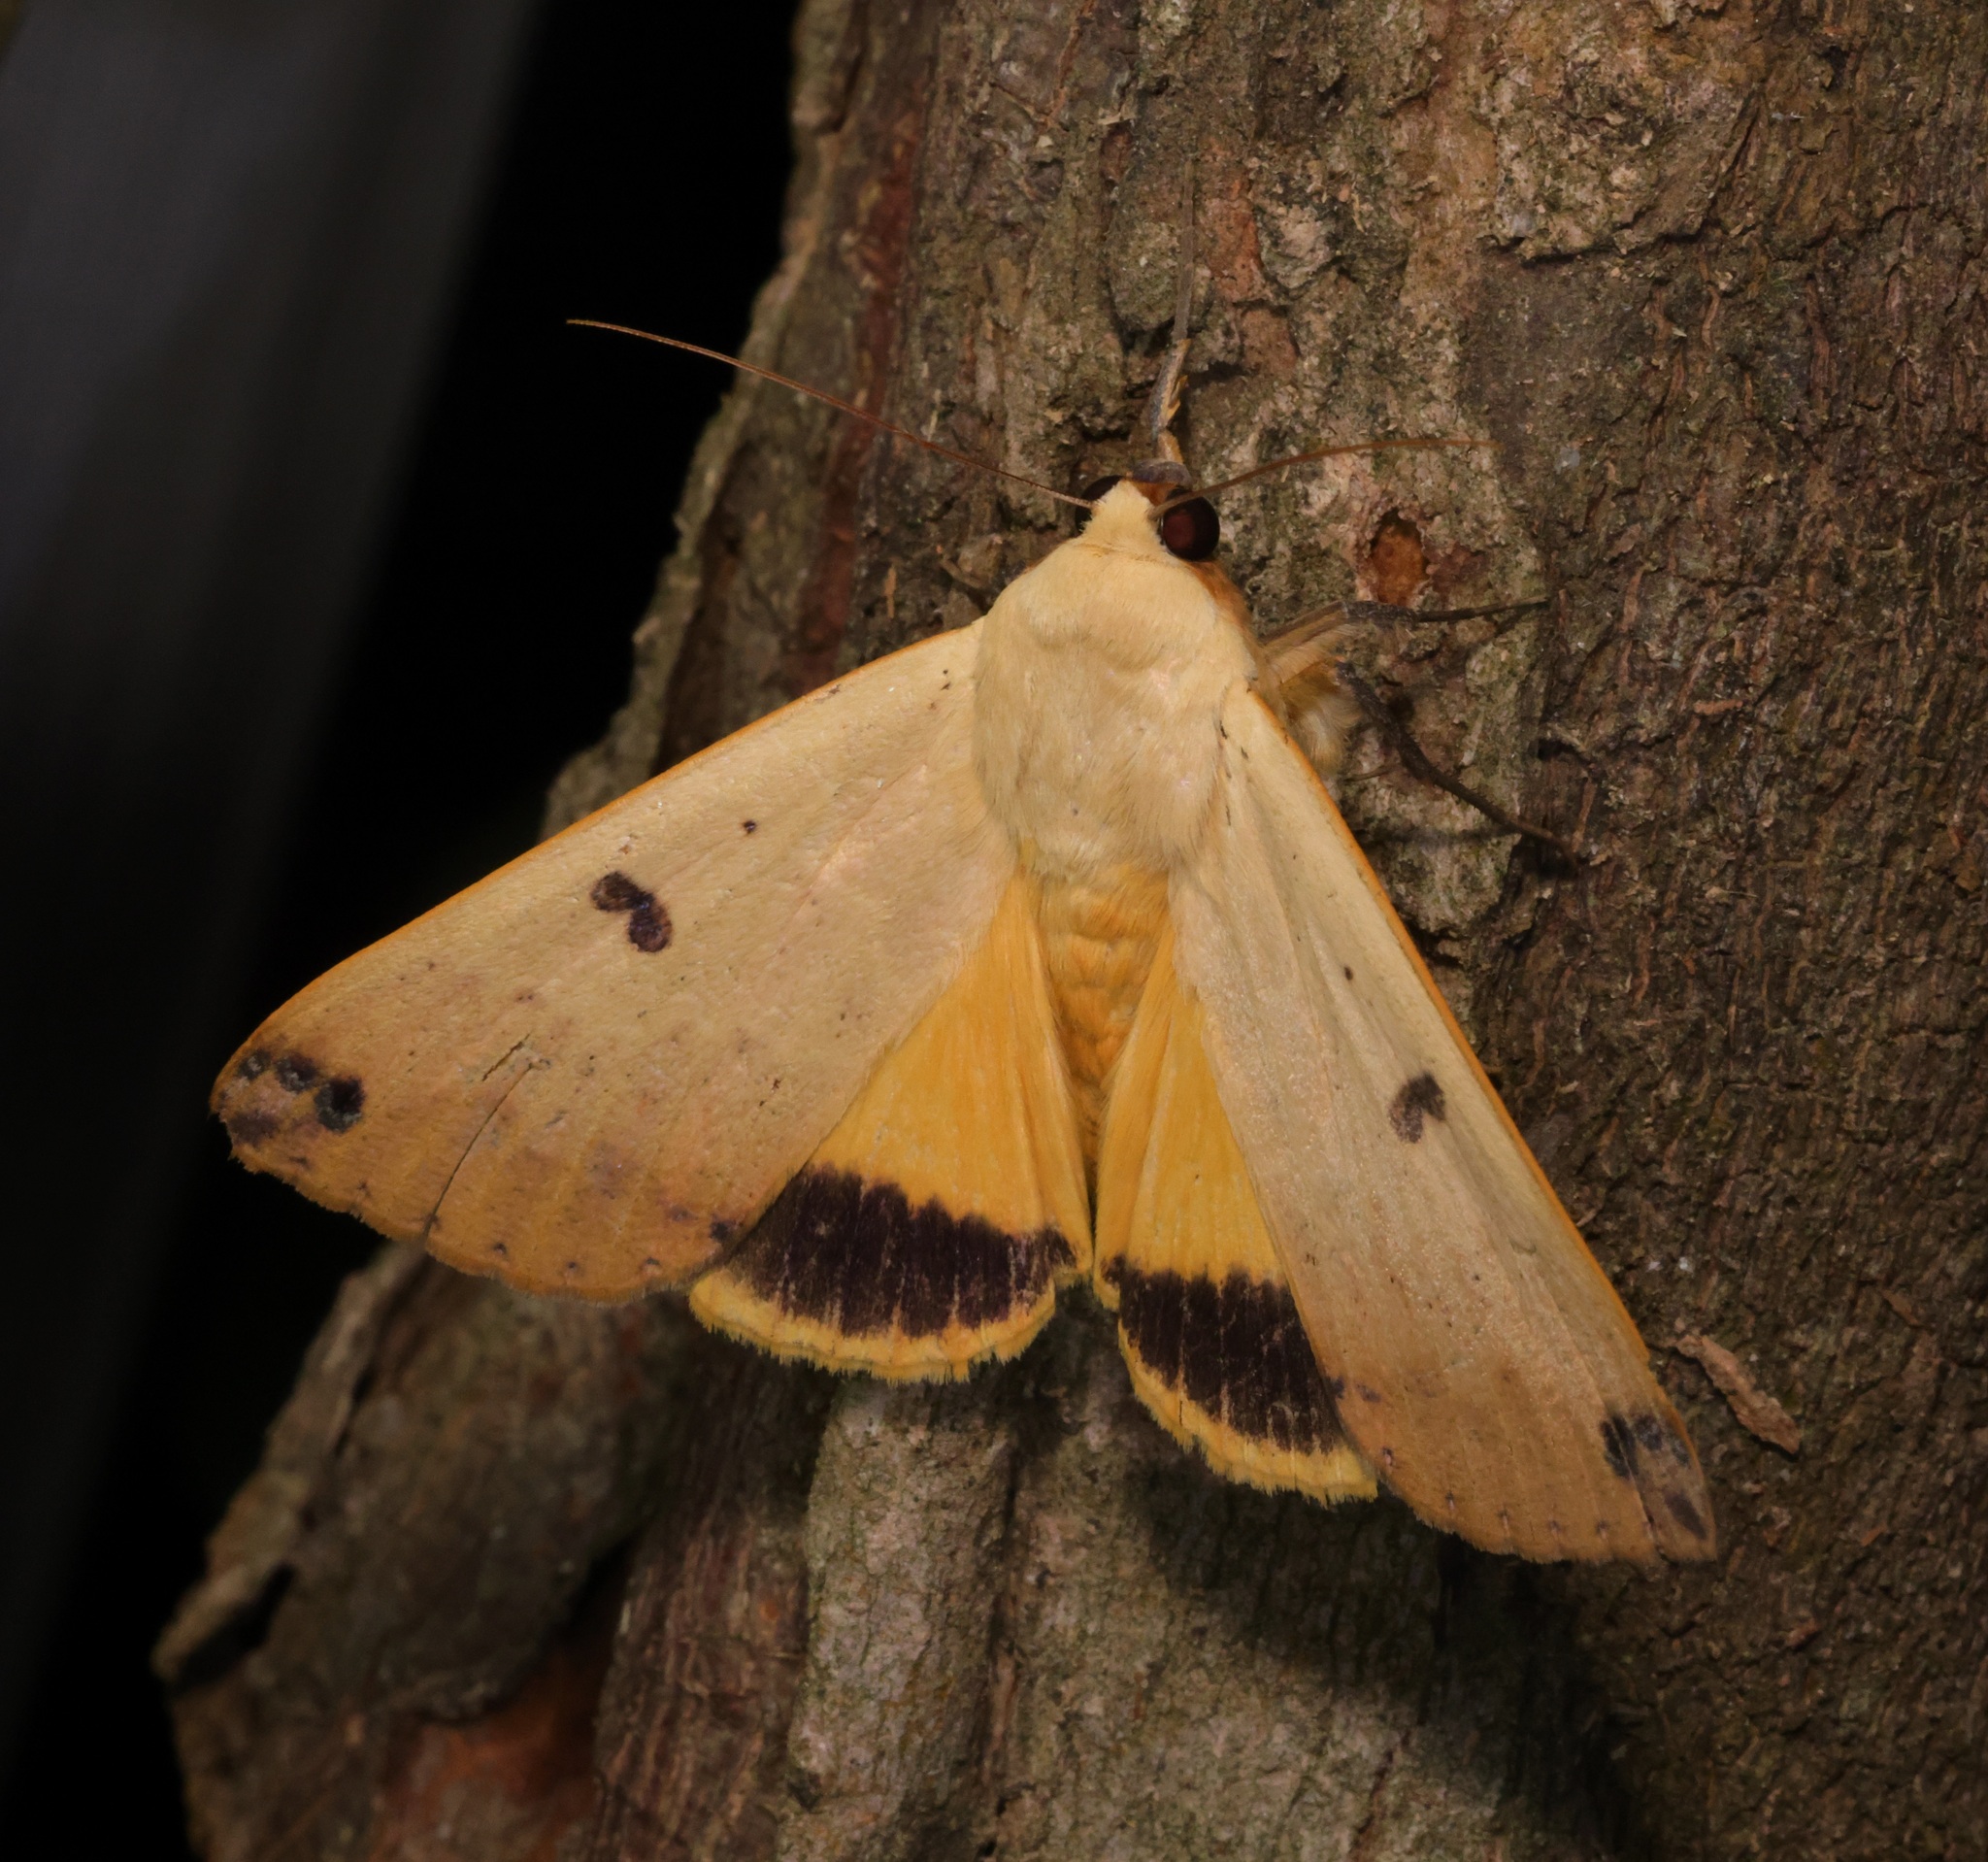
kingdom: Animalia
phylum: Arthropoda
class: Insecta
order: Lepidoptera
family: Erebidae
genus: Ophiusa
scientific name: Ophiusa disjungens
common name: Moth
